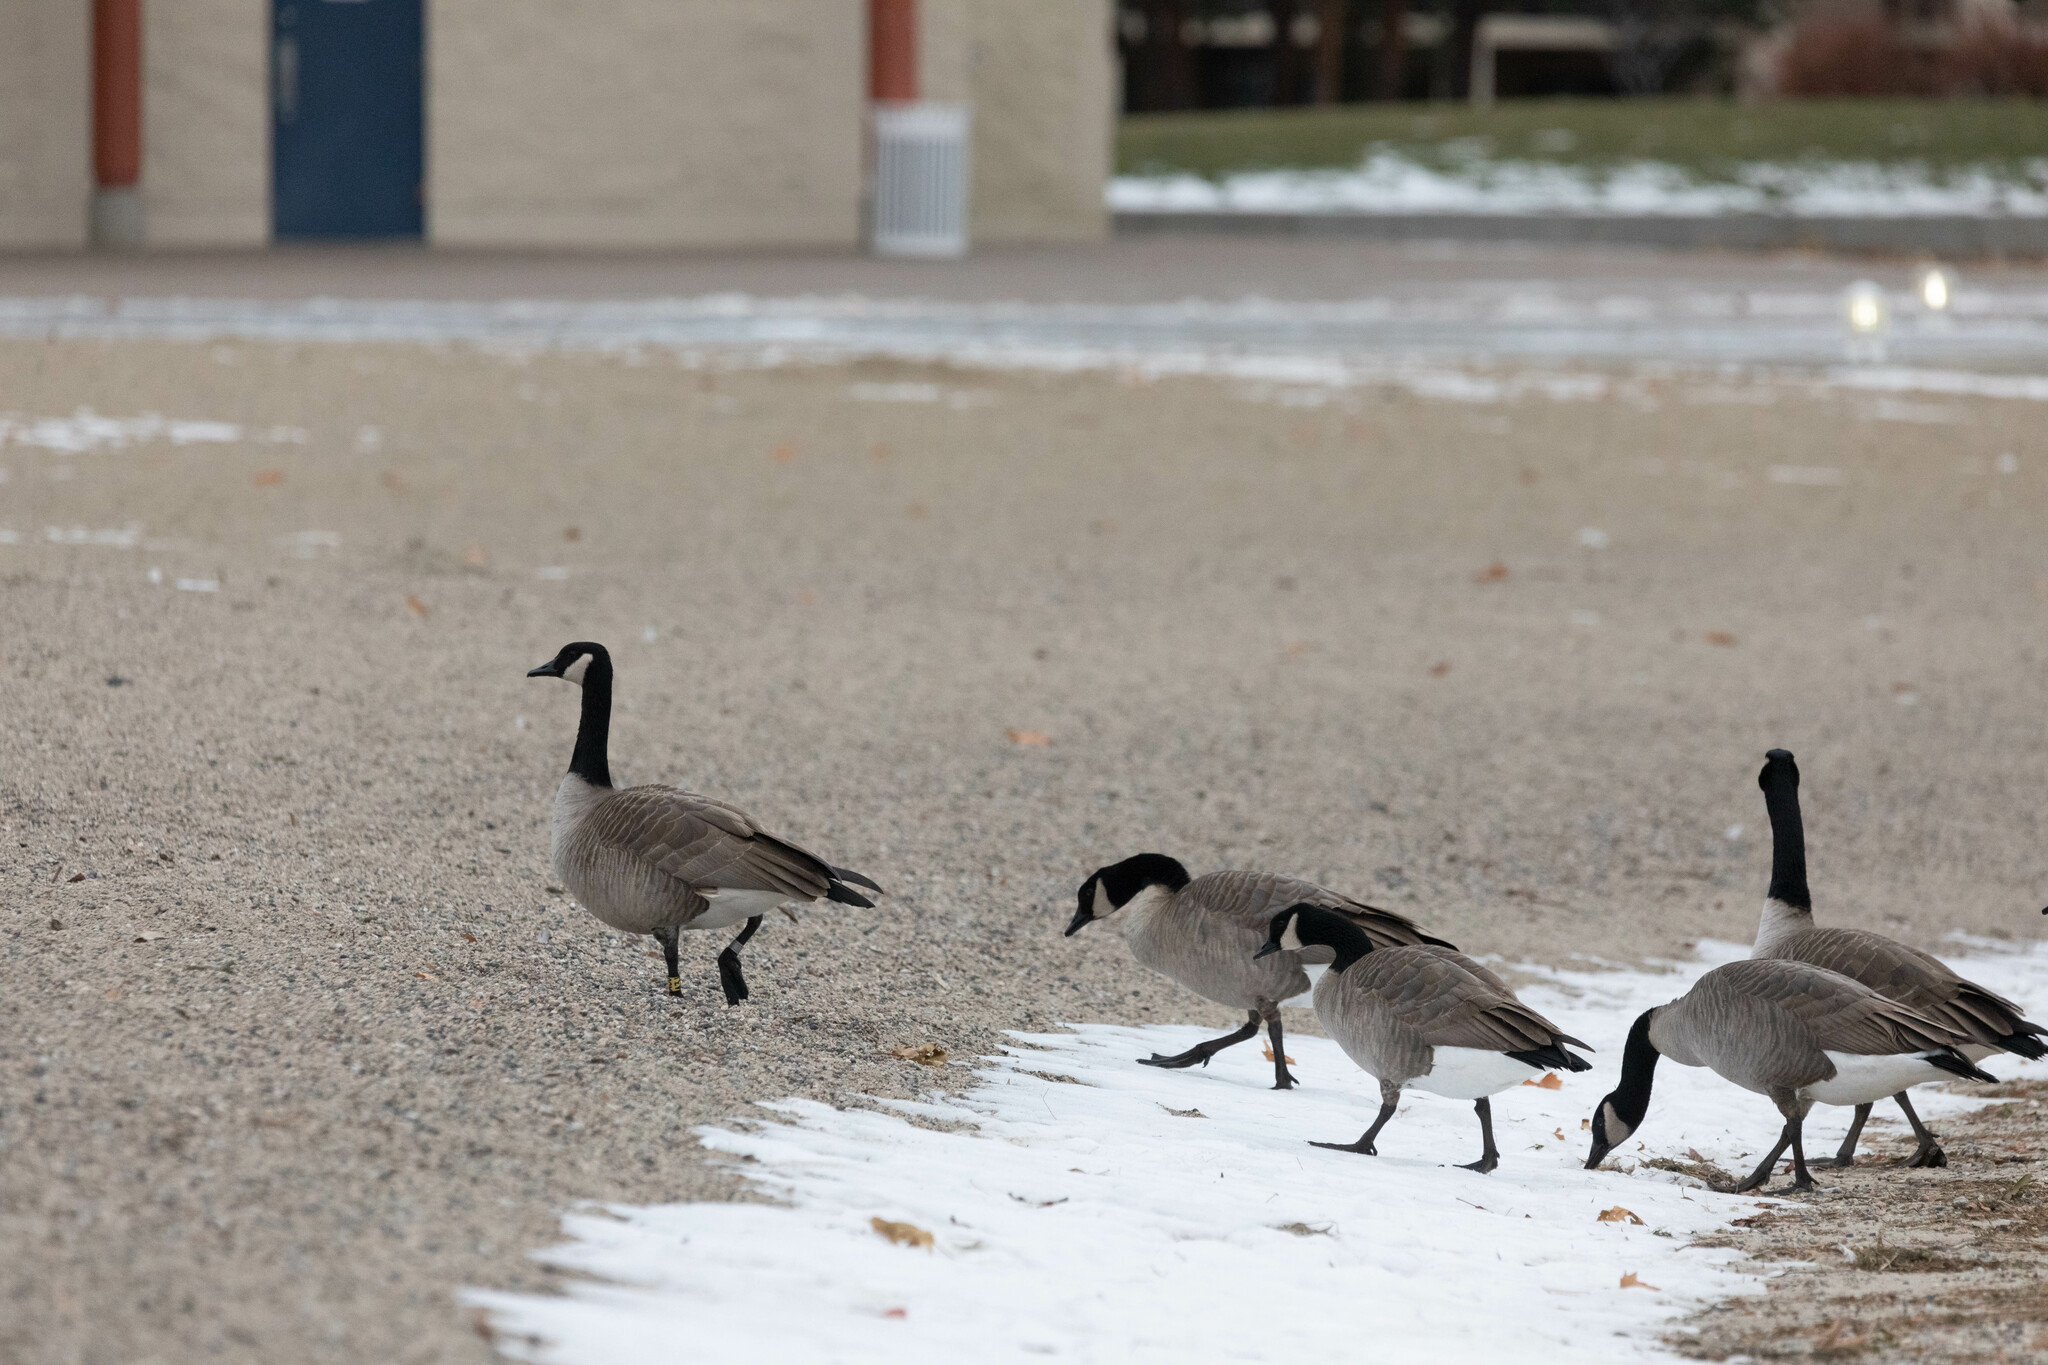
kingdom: Animalia
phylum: Chordata
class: Aves
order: Anseriformes
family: Anatidae
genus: Branta
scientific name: Branta canadensis
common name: Canada goose
